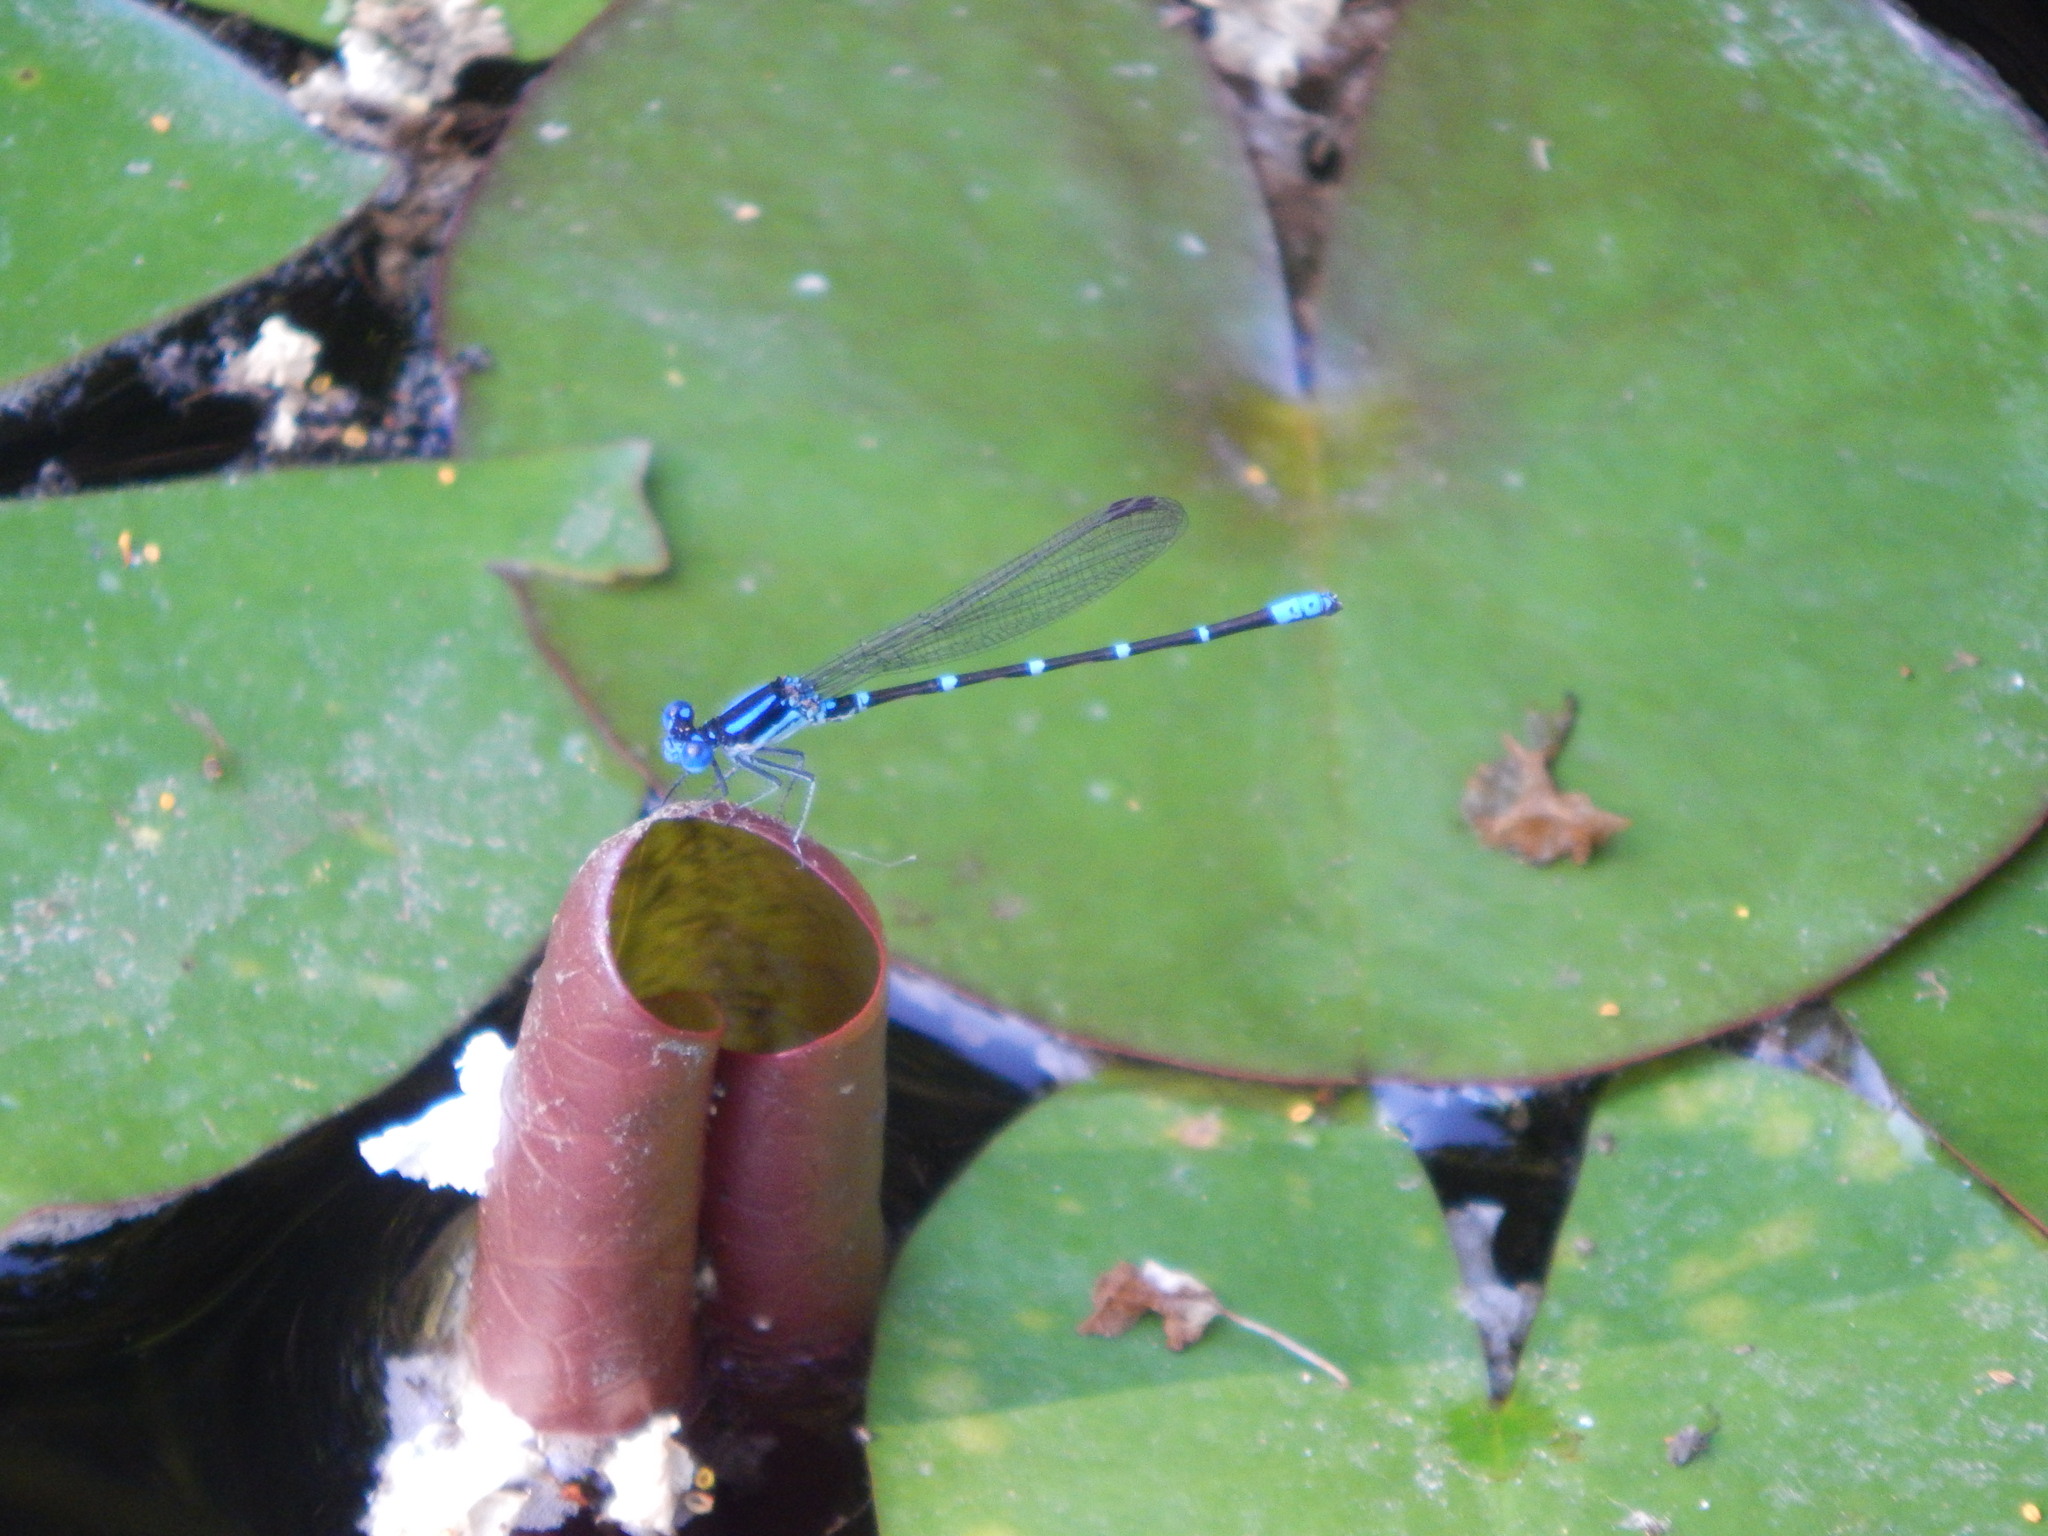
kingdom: Animalia
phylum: Arthropoda
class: Insecta
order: Odonata
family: Coenagrionidae
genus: Argia
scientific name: Argia sedula
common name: Blue-ringed dancer
